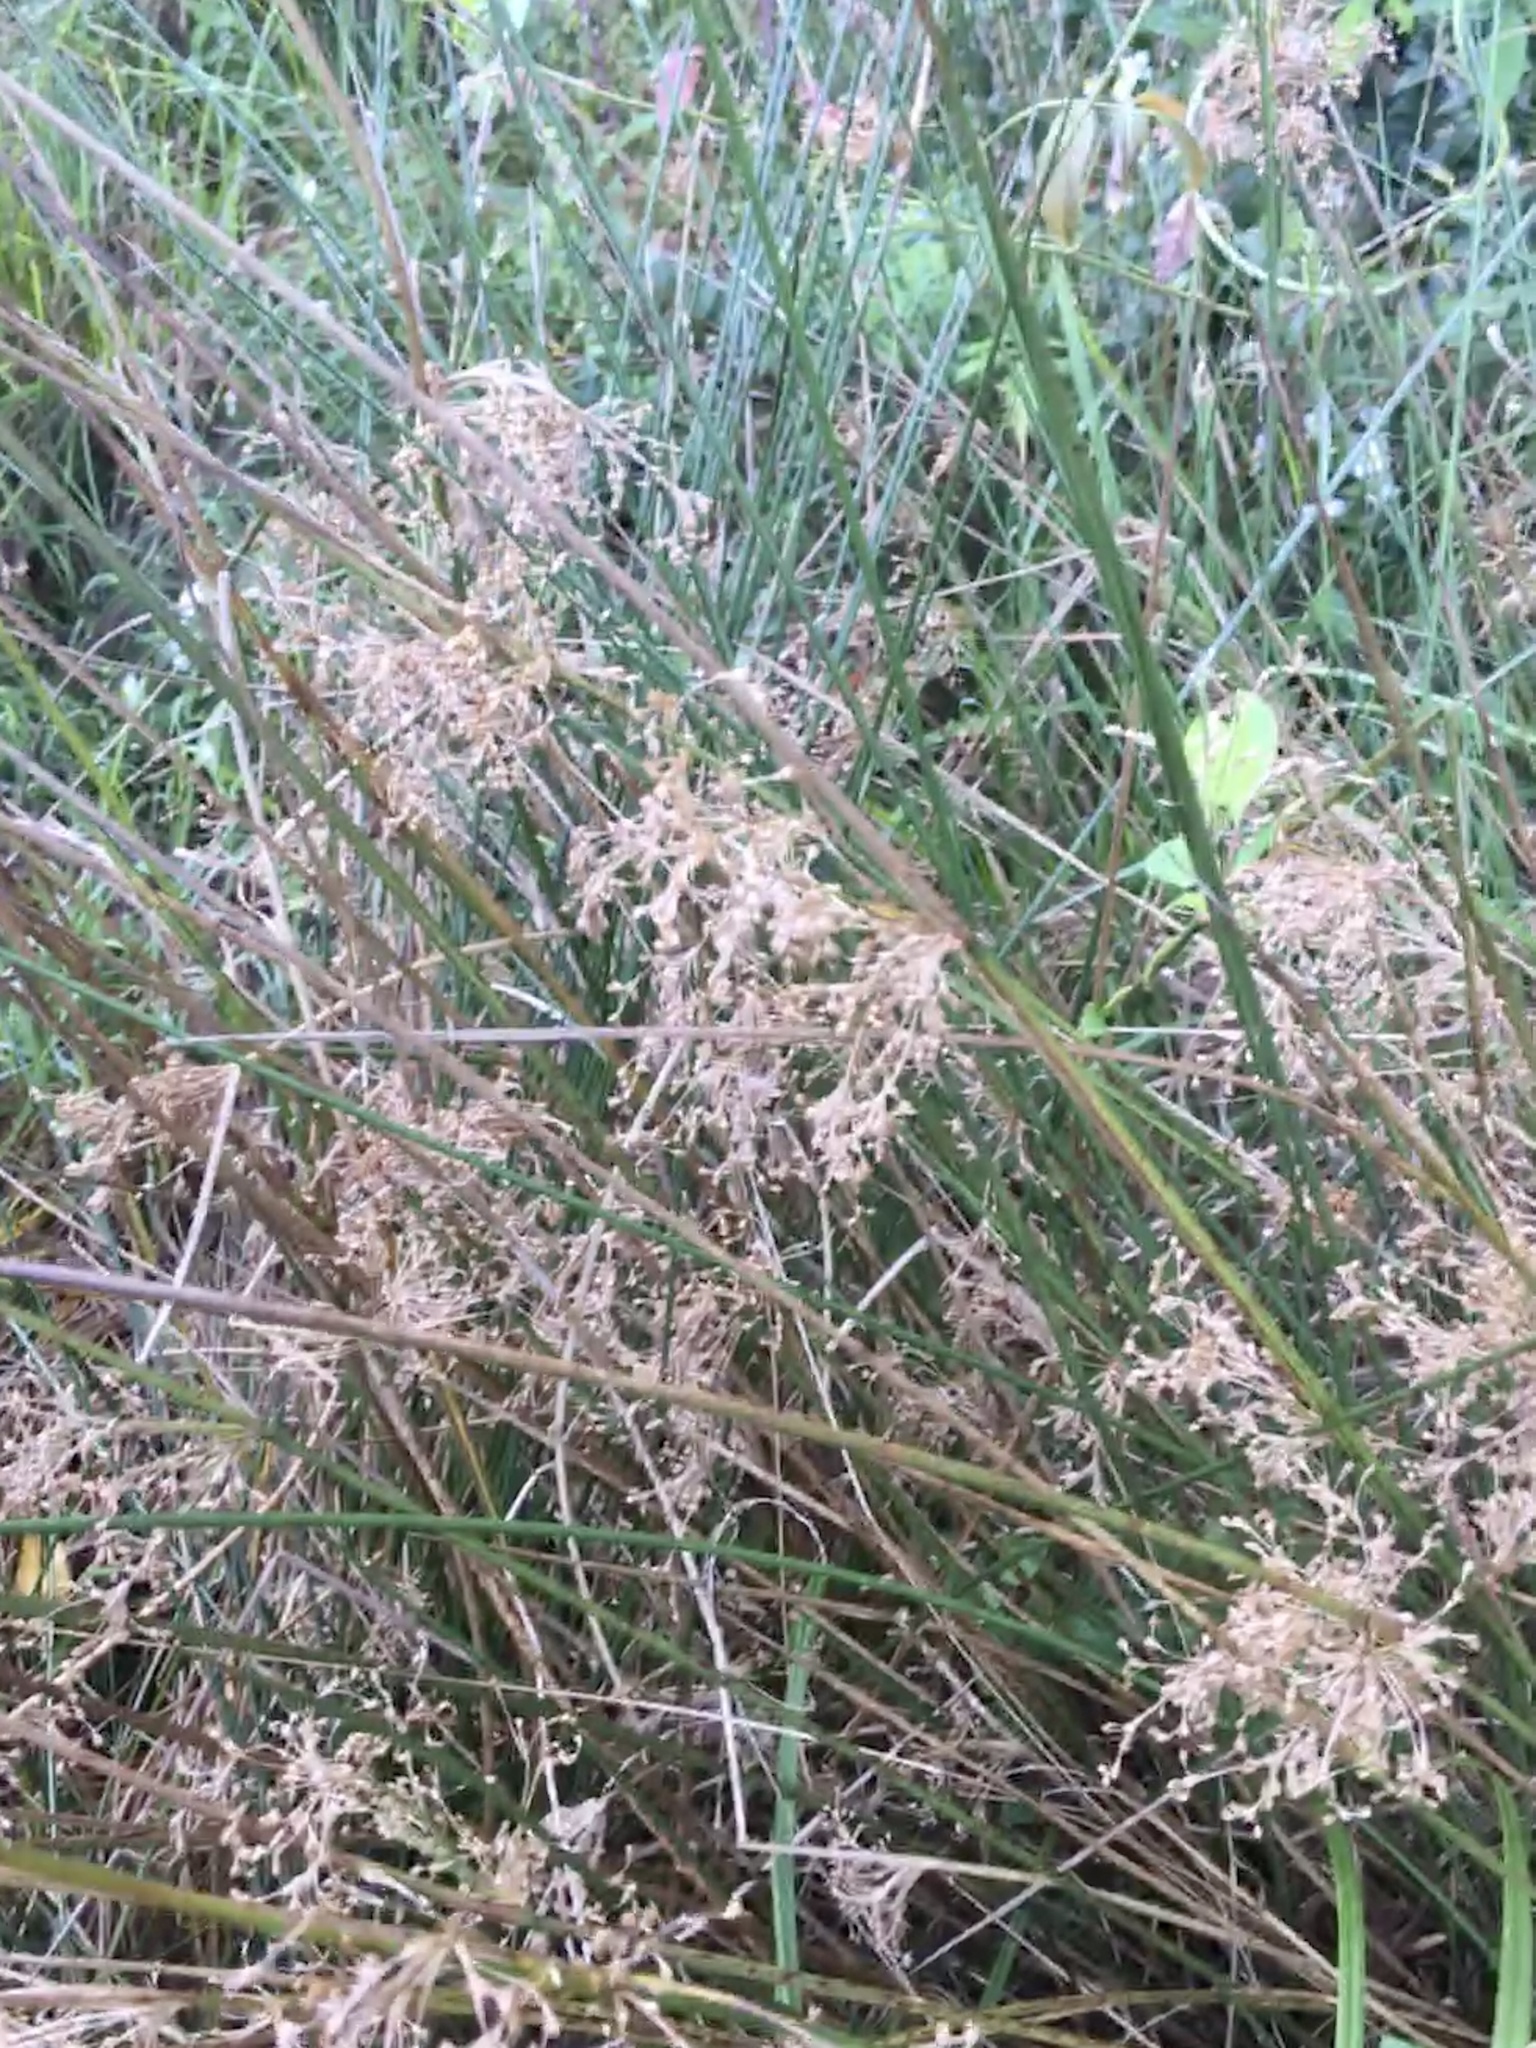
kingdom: Plantae
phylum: Tracheophyta
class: Liliopsida
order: Poales
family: Juncaceae
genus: Juncus
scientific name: Juncus effusus
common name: Soft rush
